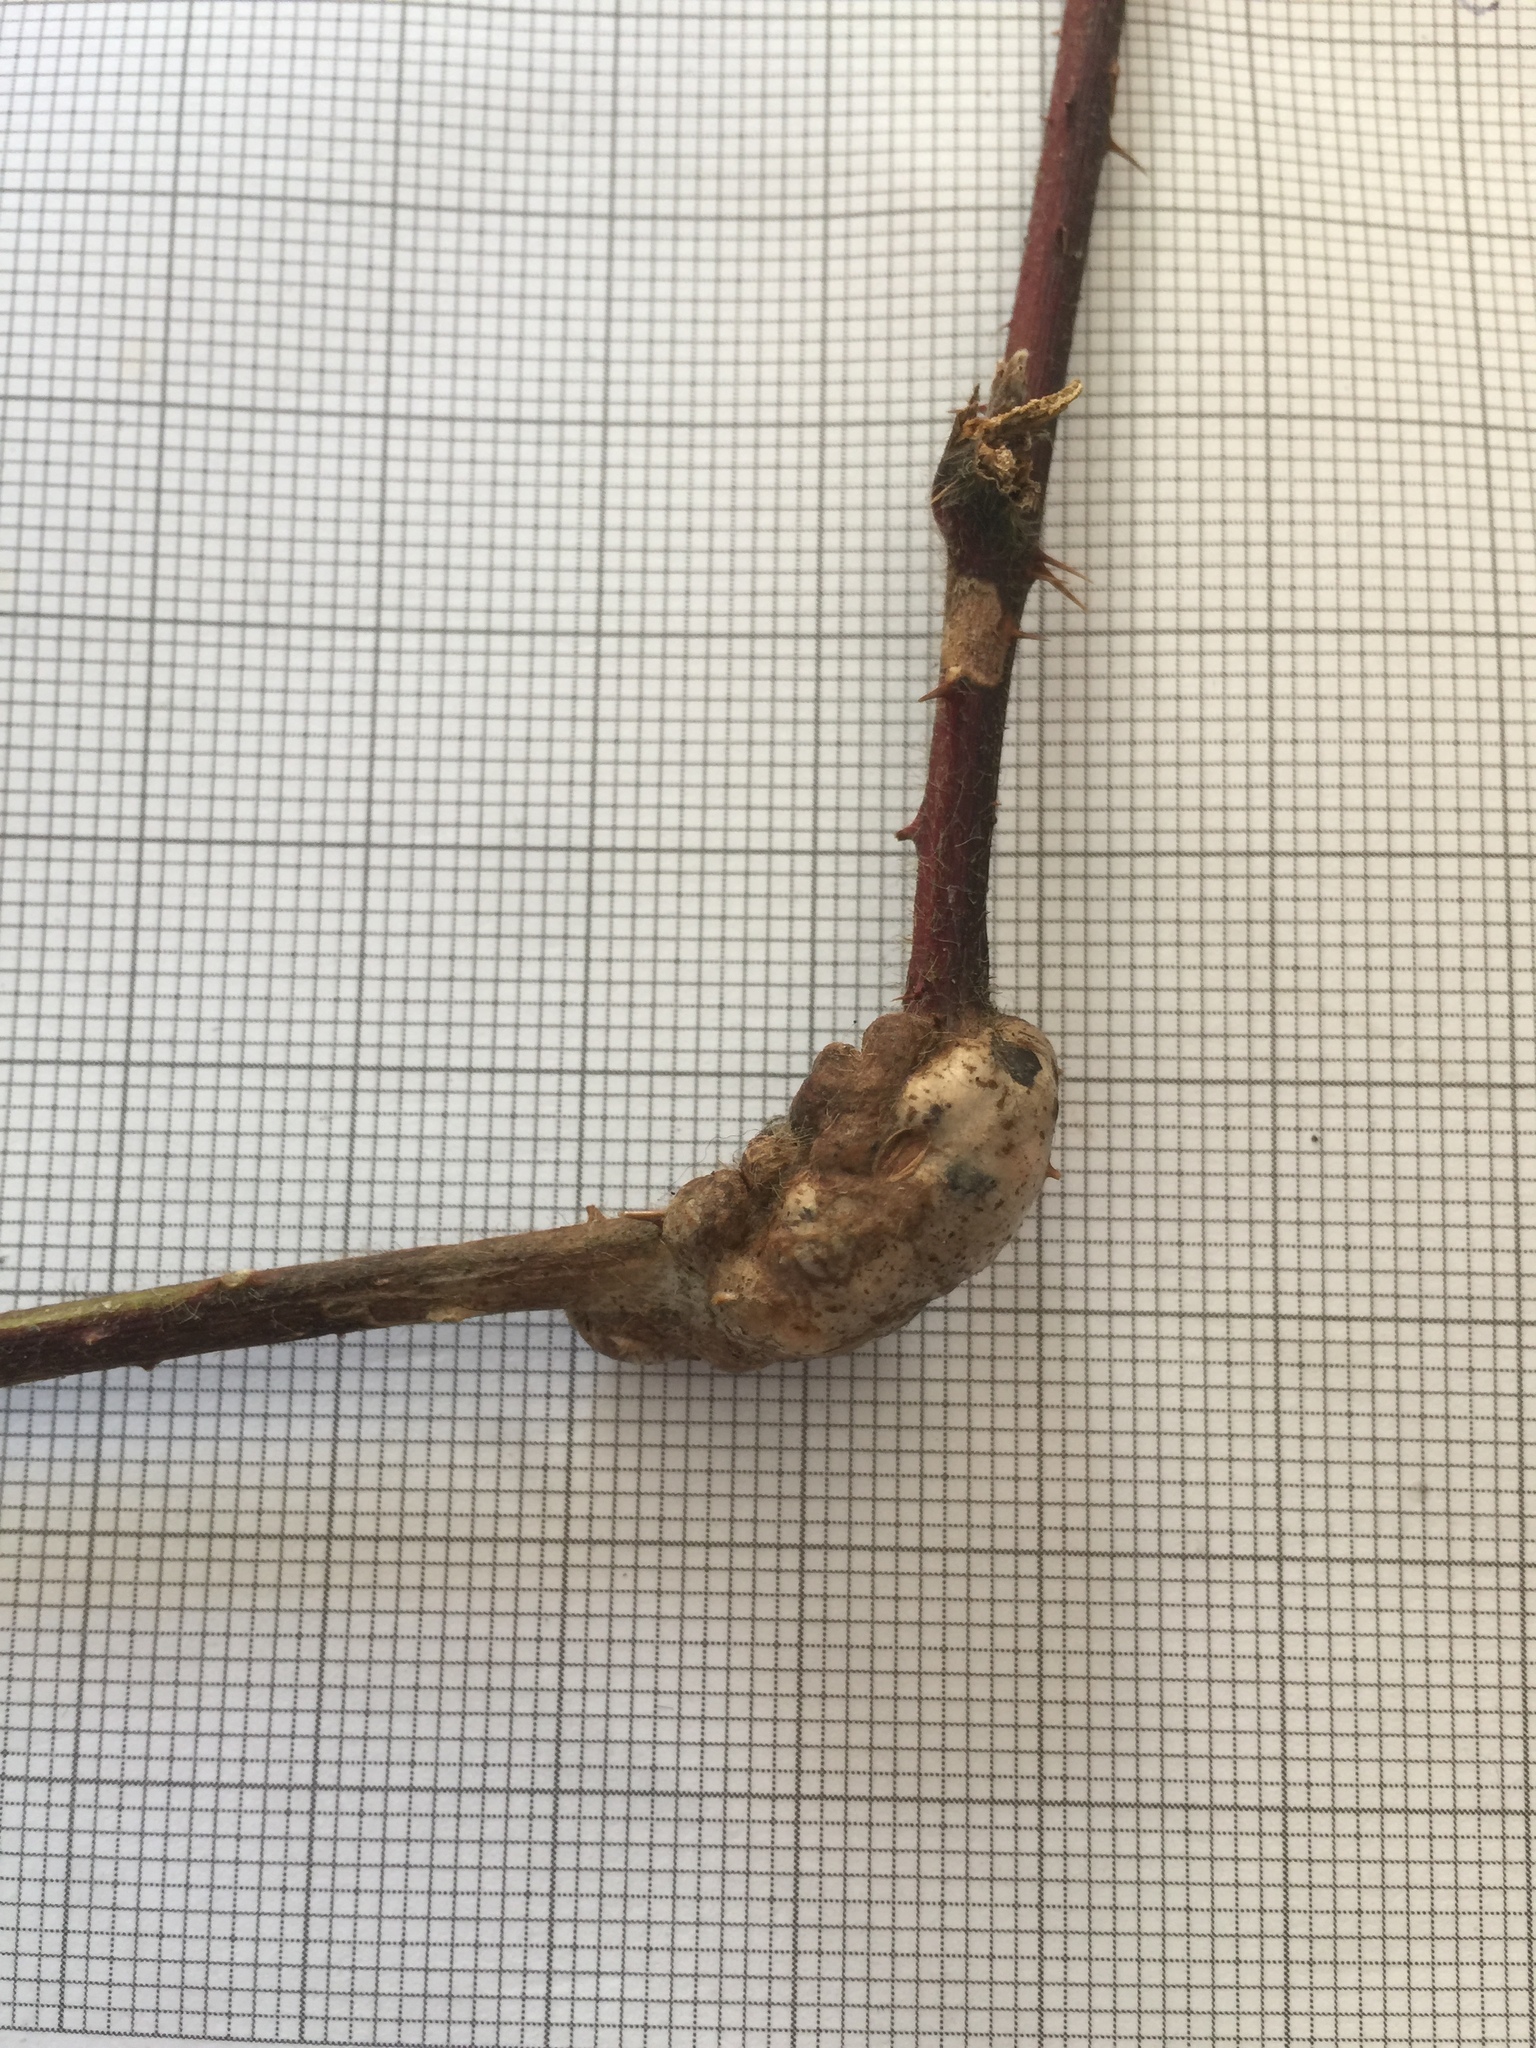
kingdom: Animalia
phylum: Arthropoda
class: Insecta
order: Hymenoptera
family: Cynipidae
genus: Diastrophus
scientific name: Diastrophus rubi
